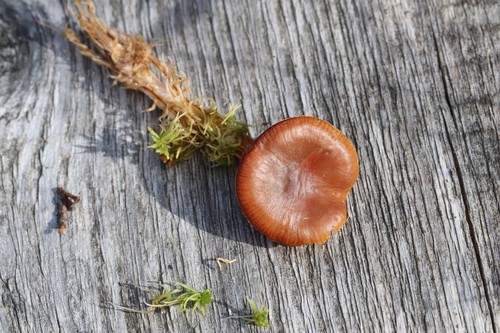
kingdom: Fungi
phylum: Basidiomycota
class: Agaricomycetes
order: Agaricales
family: Cortinariaceae
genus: Cortinarius
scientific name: Cortinarius obtusus
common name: Blunt webcap
